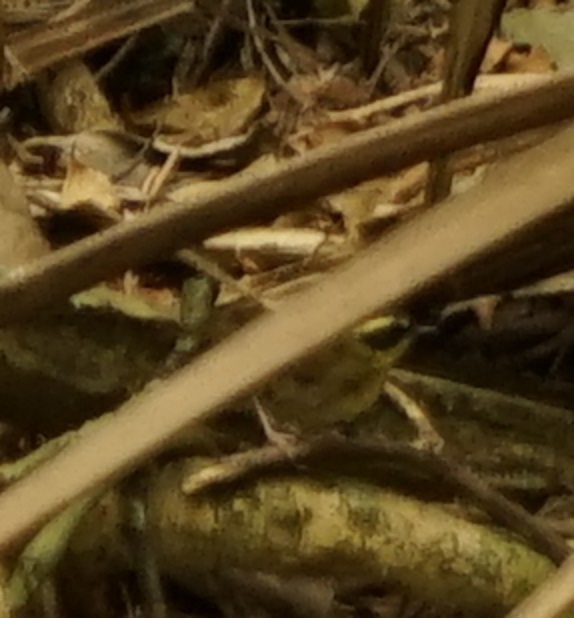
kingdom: Animalia
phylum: Chordata
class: Aves
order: Passeriformes
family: Acanthizidae
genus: Sericornis
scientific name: Sericornis citreogularis
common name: Yellow-throated scrubwren
